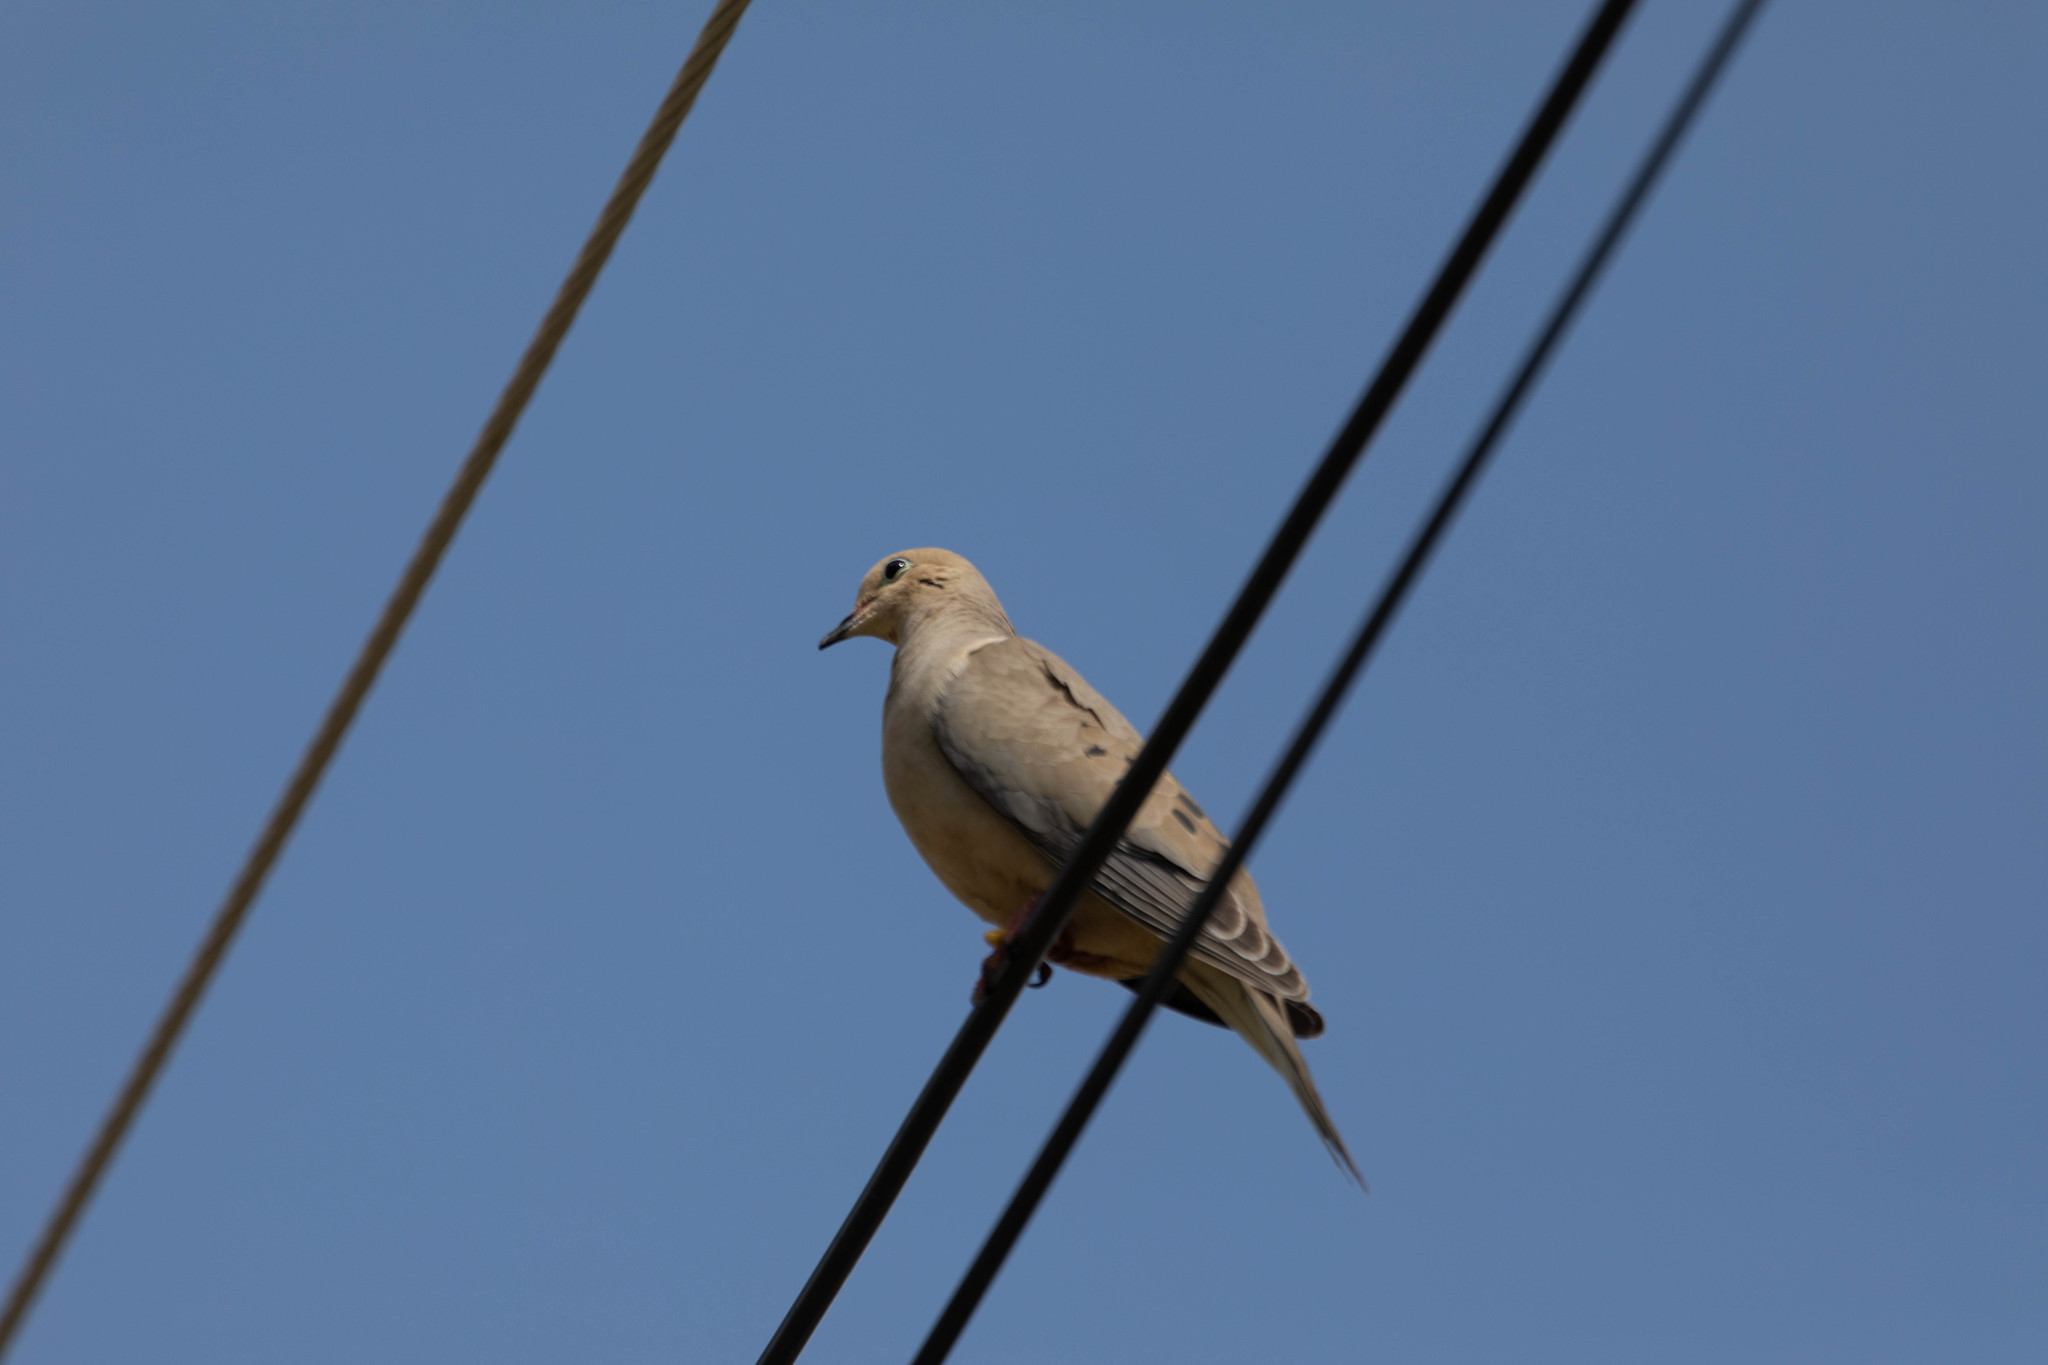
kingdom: Animalia
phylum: Chordata
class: Aves
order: Columbiformes
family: Columbidae
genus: Zenaida
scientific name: Zenaida macroura
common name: Mourning dove
